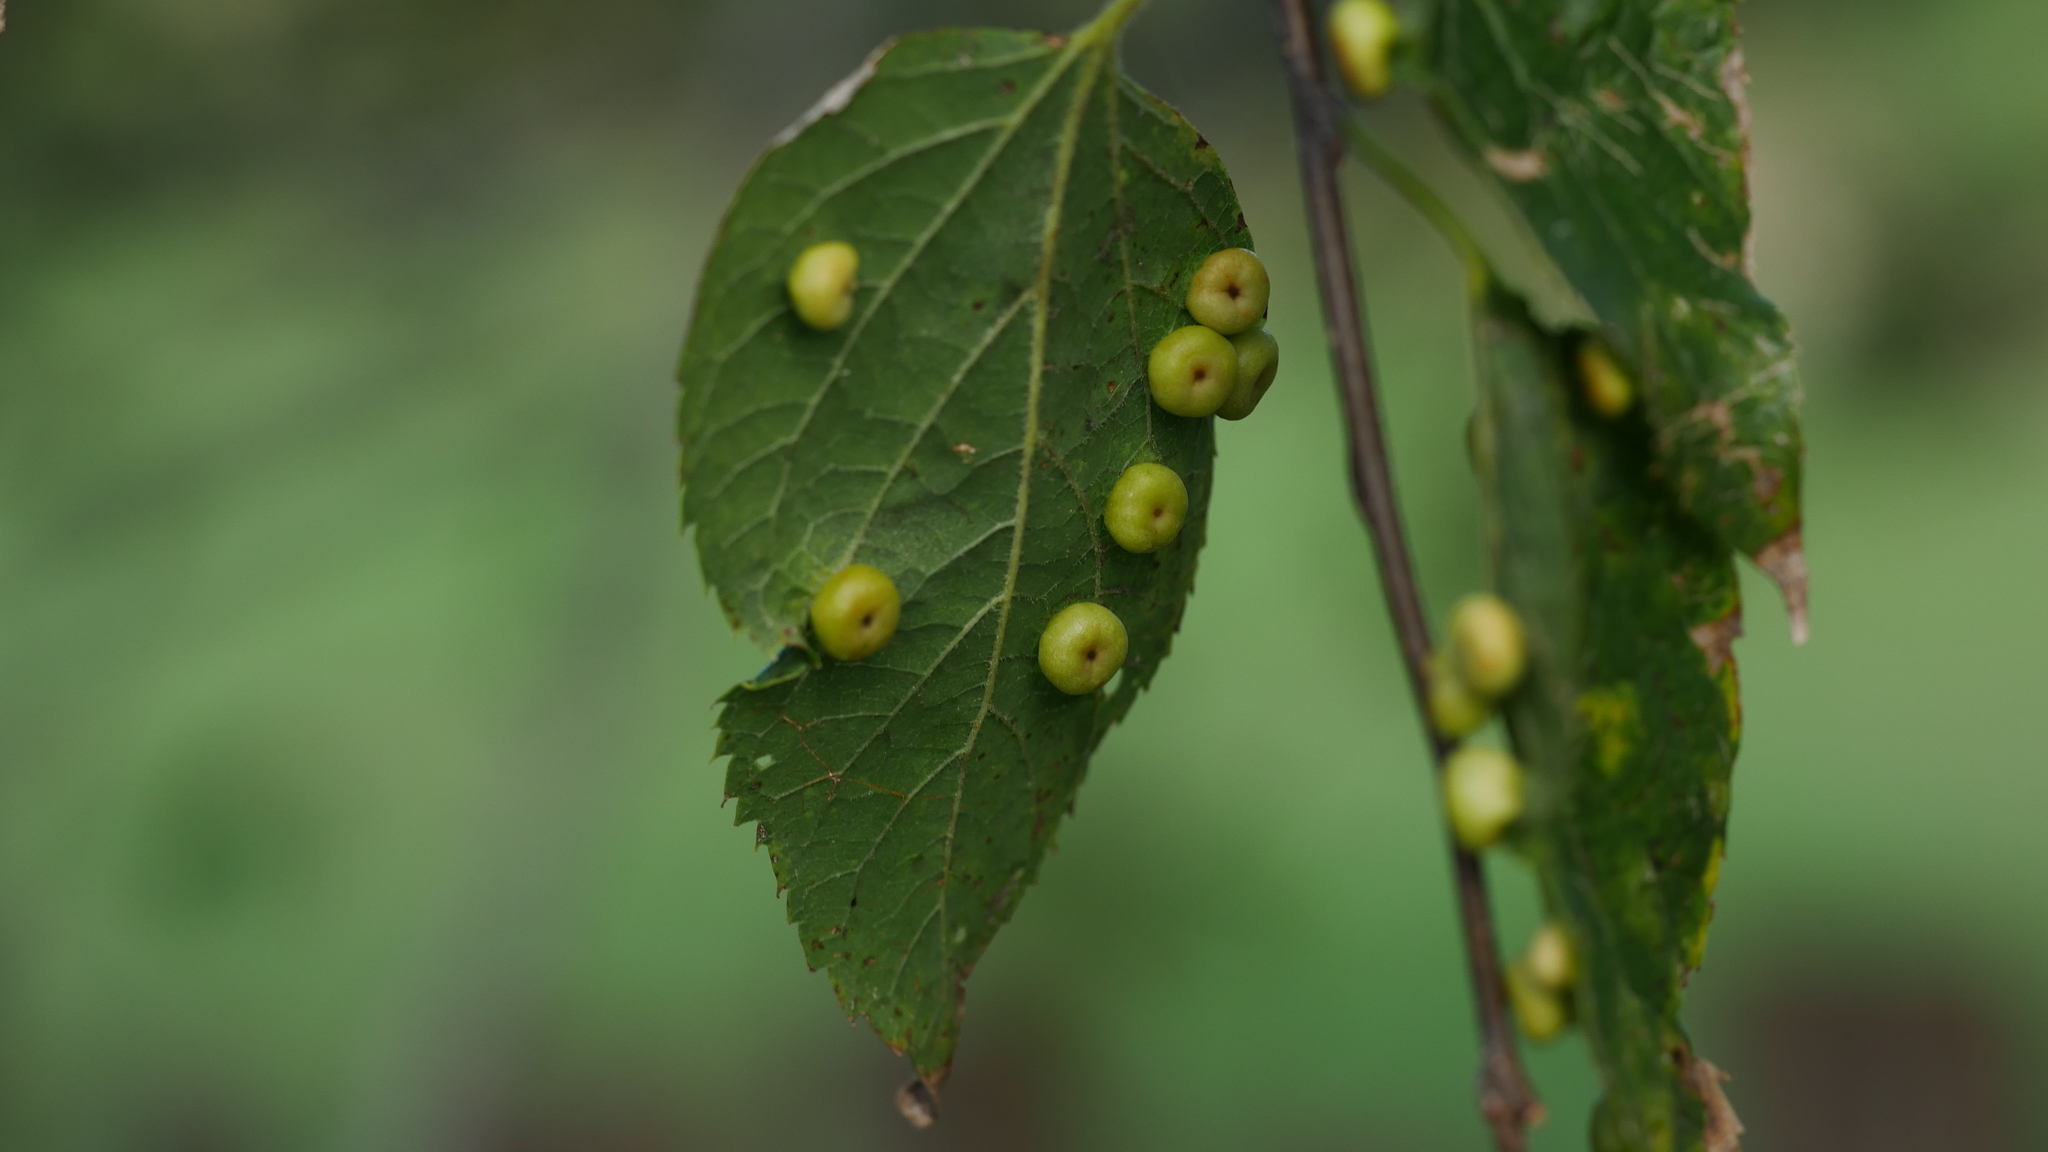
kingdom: Animalia
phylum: Arthropoda
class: Insecta
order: Hemiptera
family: Aphalaridae
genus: Pachypsylla
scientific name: Pachypsylla celtidismamma
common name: Hackberry nipplegall psyllid
